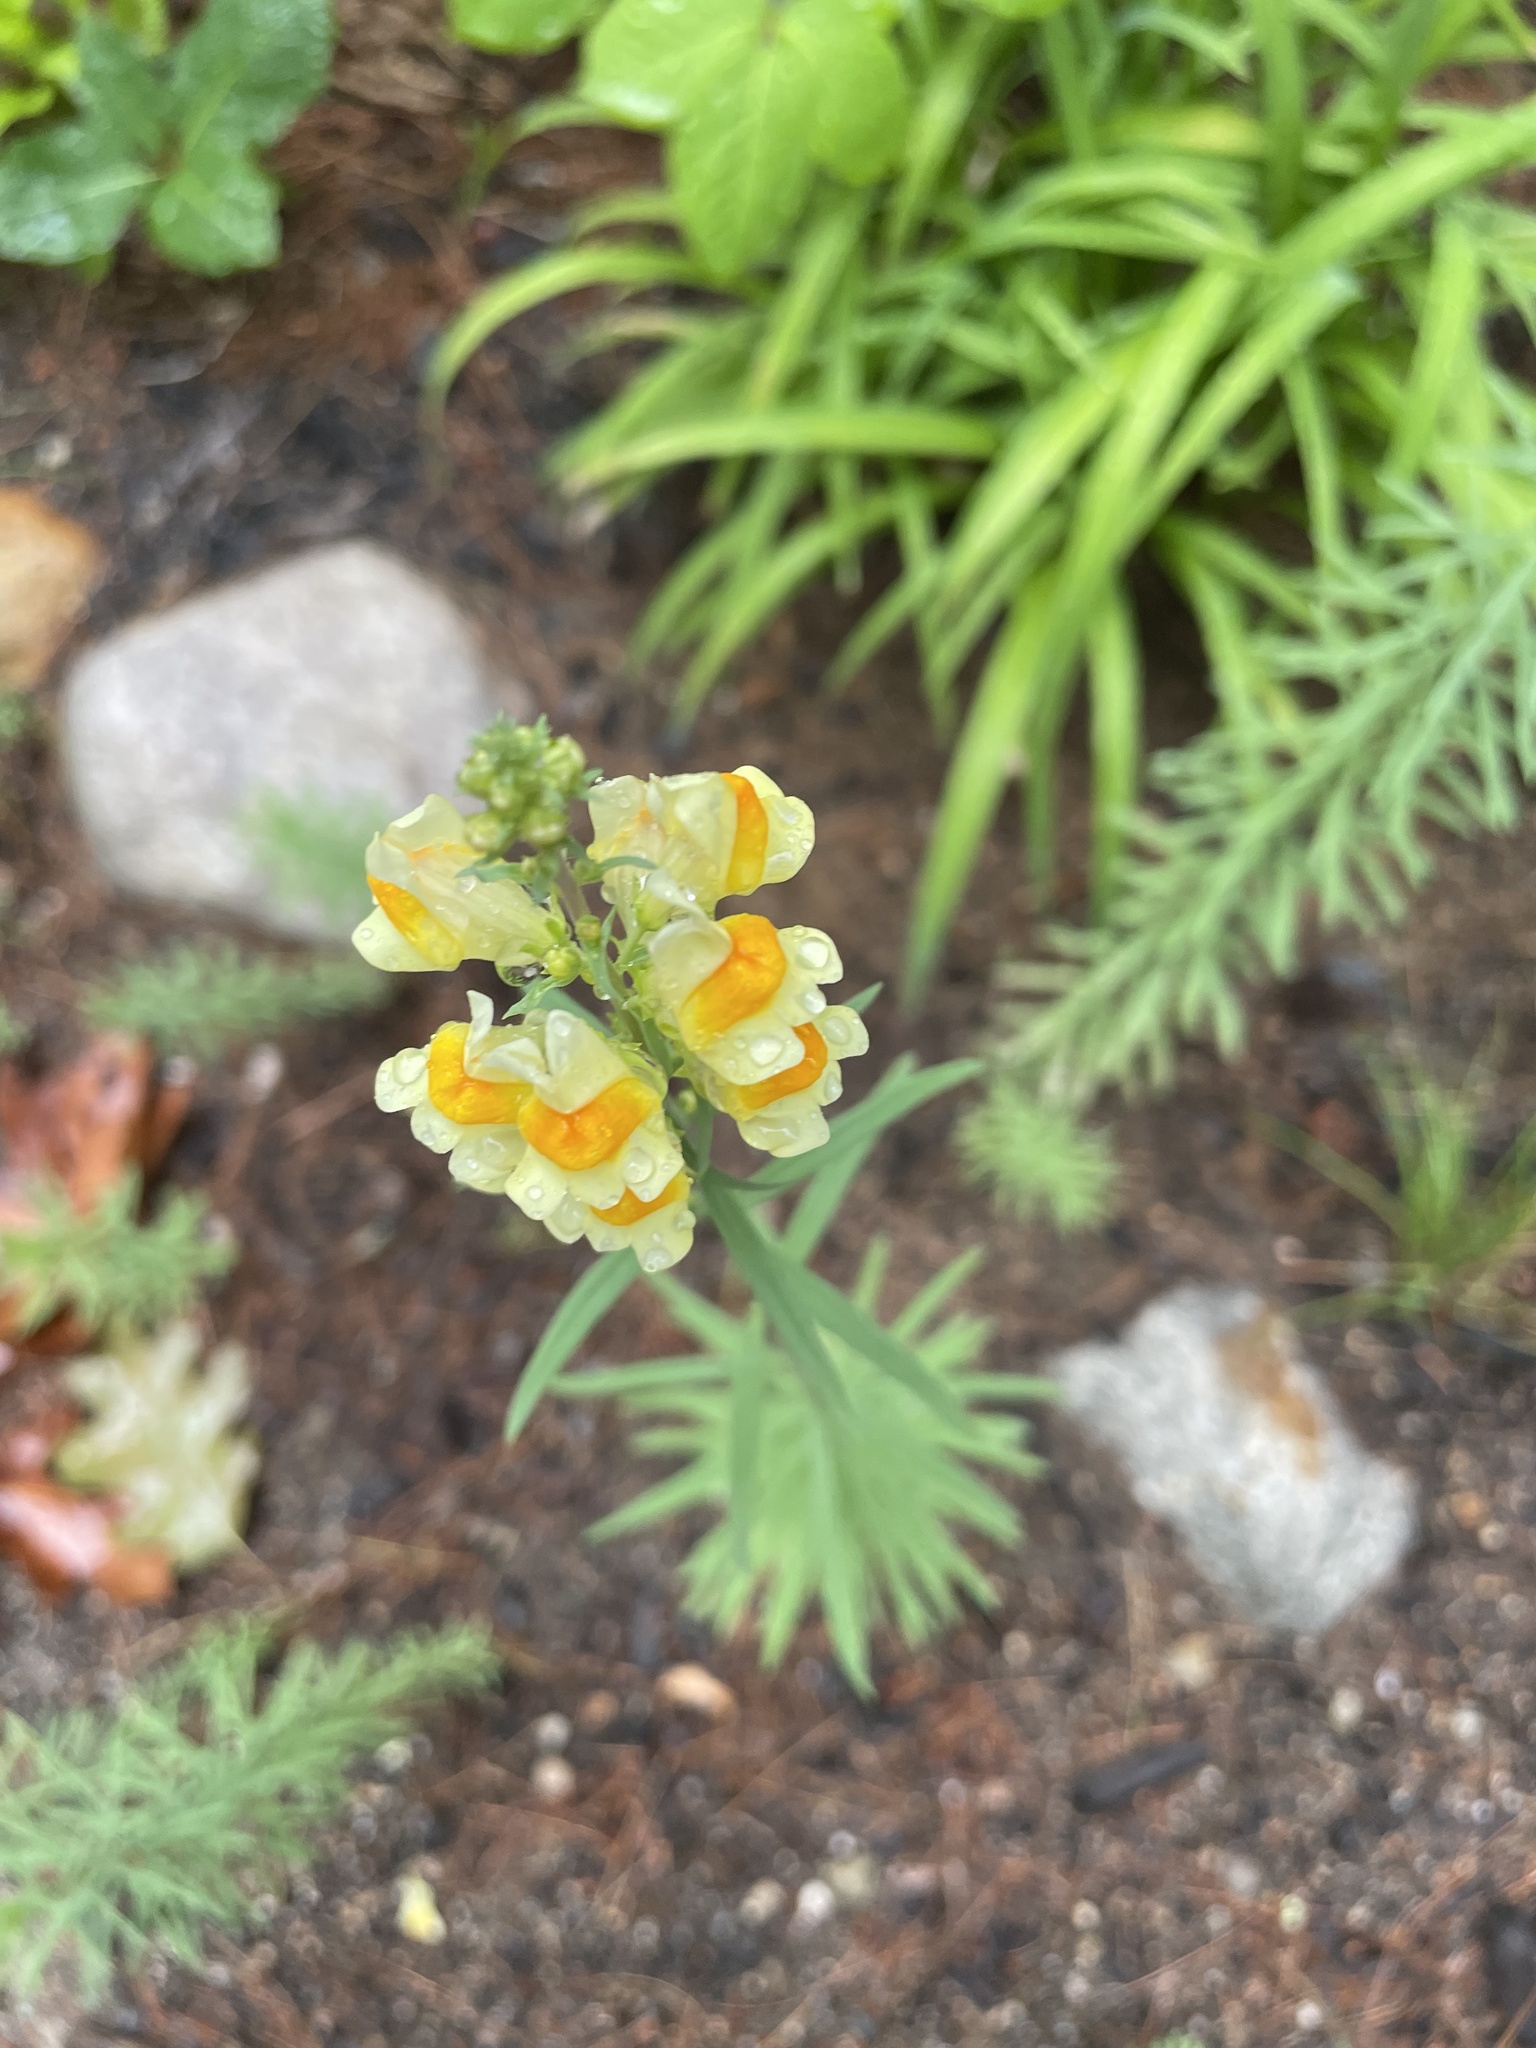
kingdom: Plantae
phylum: Tracheophyta
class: Magnoliopsida
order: Lamiales
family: Plantaginaceae
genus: Linaria
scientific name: Linaria vulgaris
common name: Butter and eggs
